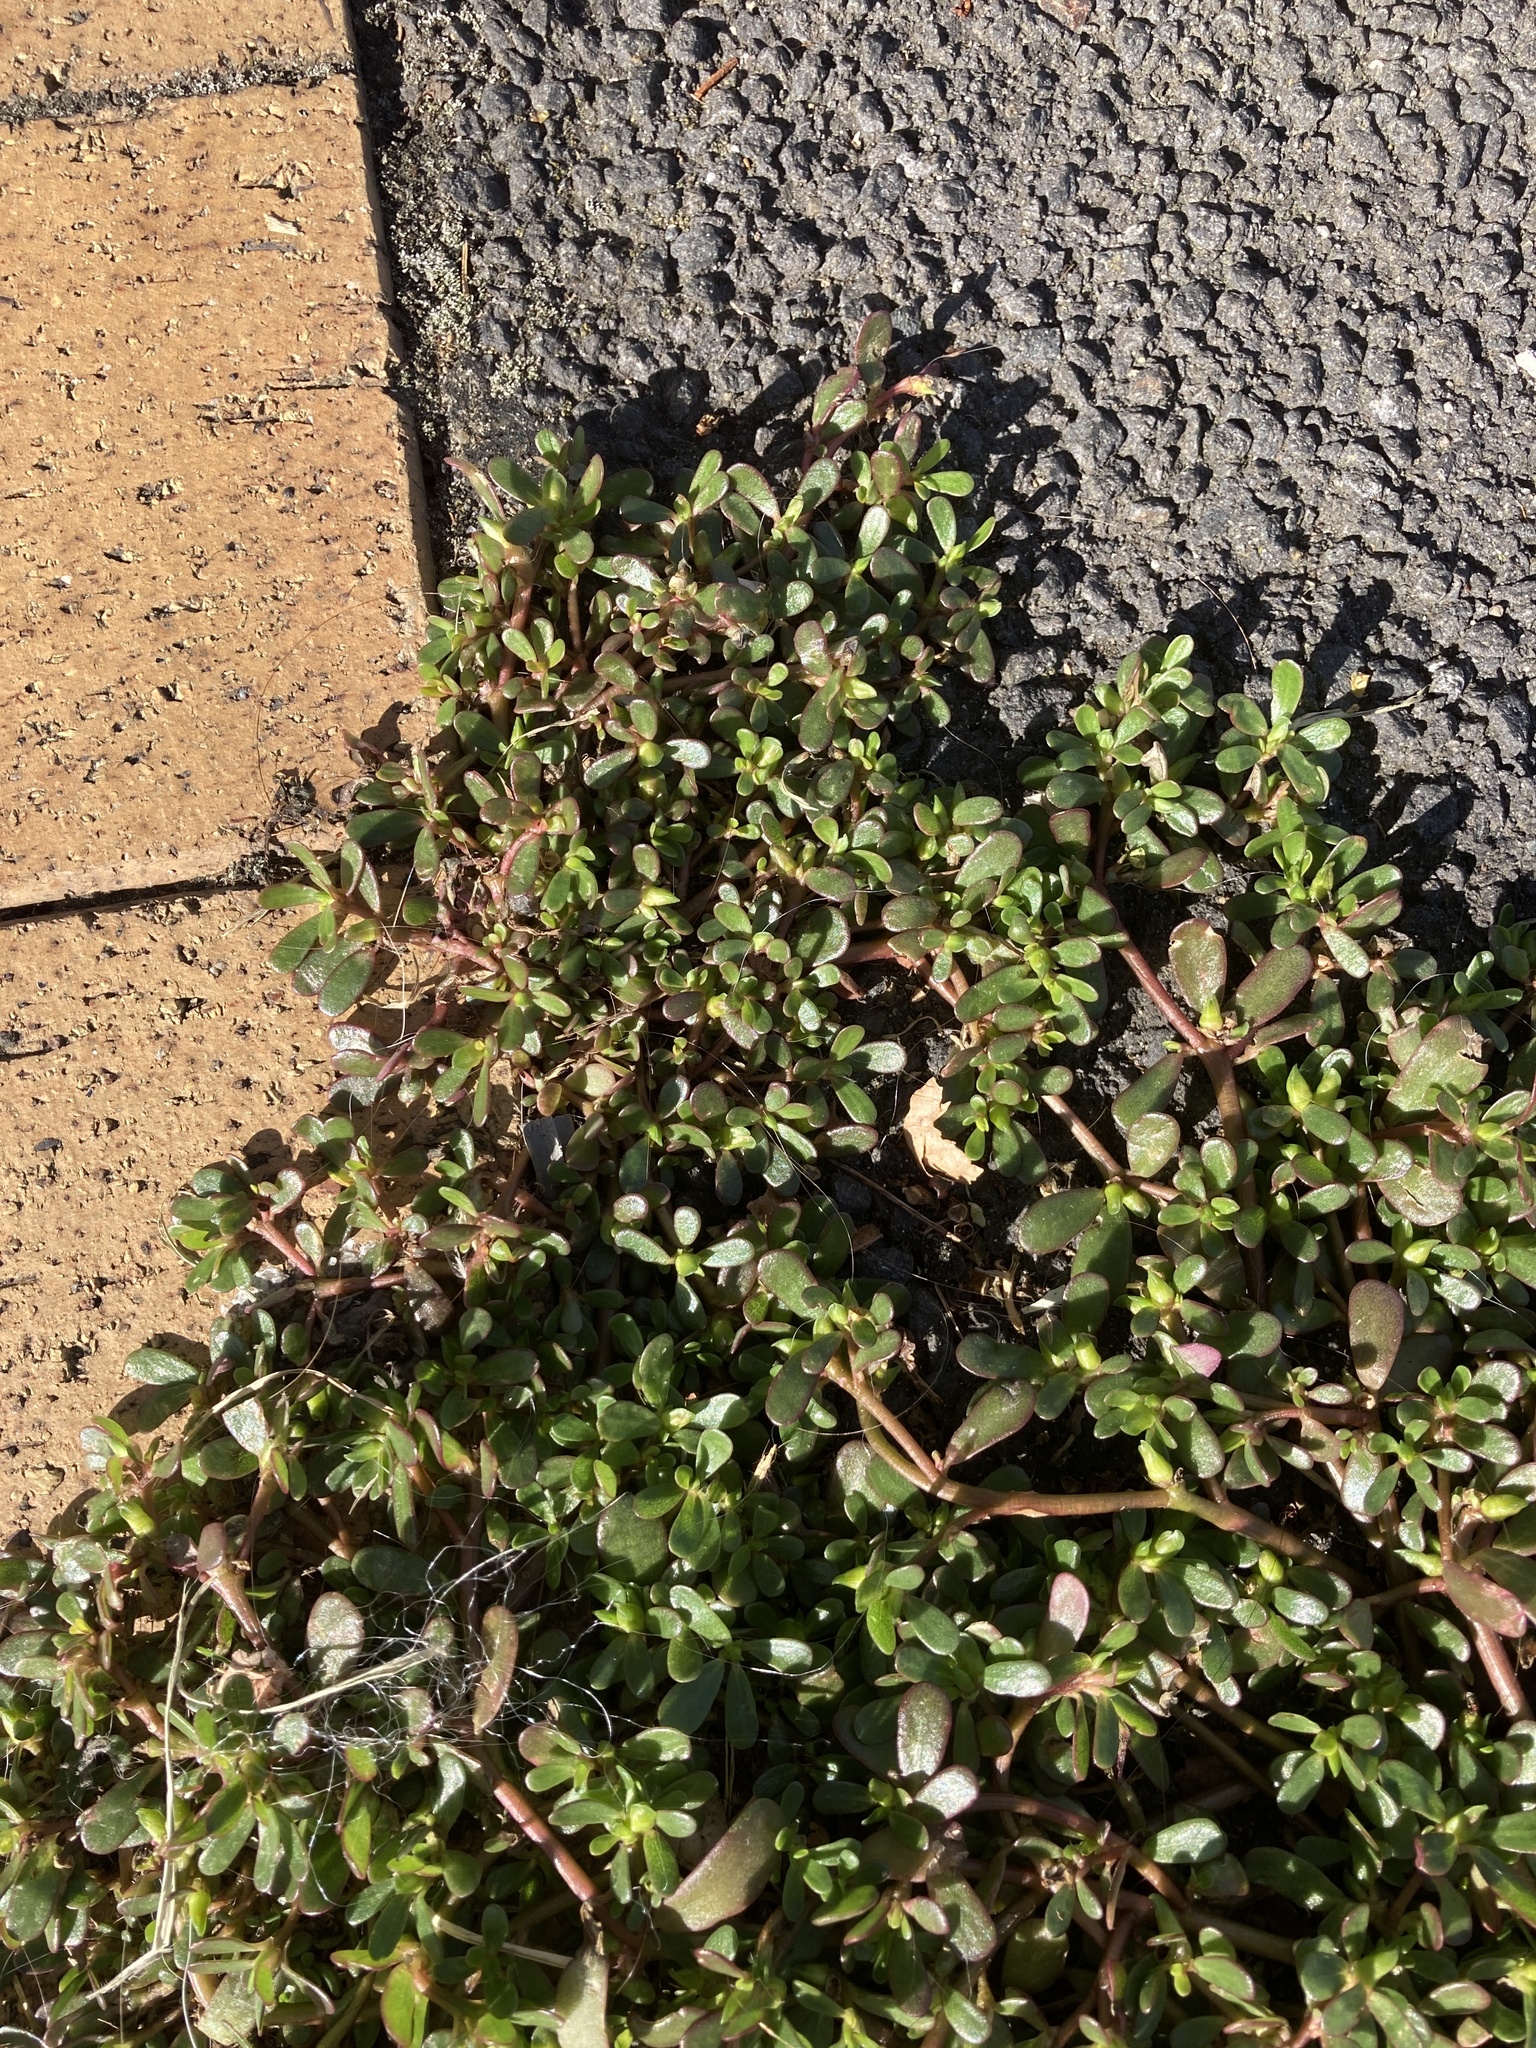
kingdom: Plantae
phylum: Tracheophyta
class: Magnoliopsida
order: Caryophyllales
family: Portulacaceae
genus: Portulaca
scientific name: Portulaca oleracea
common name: Common purslane
